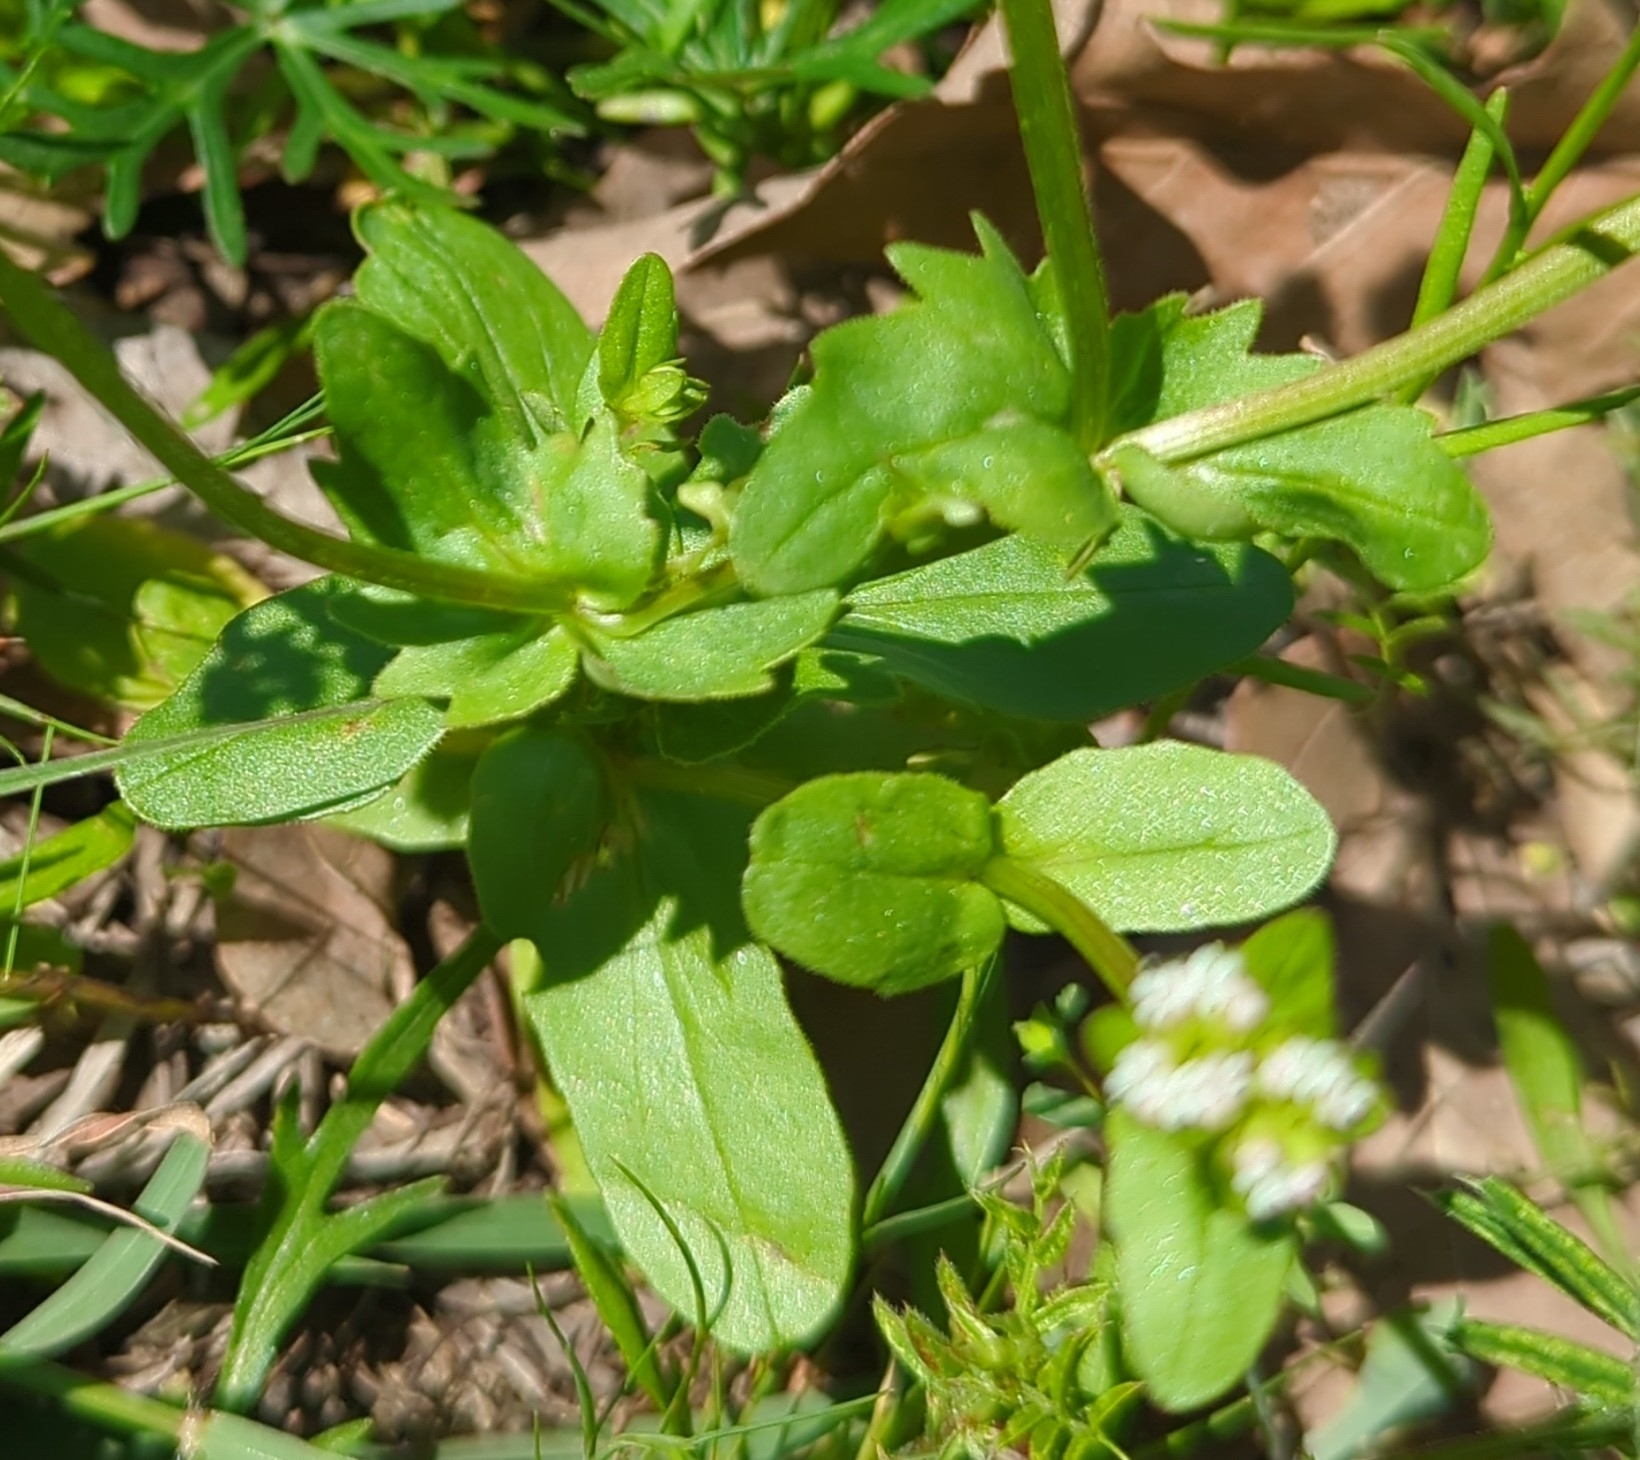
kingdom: Plantae
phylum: Tracheophyta
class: Magnoliopsida
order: Dipsacales
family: Caprifoliaceae
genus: Valerianella
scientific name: Valerianella radiata
